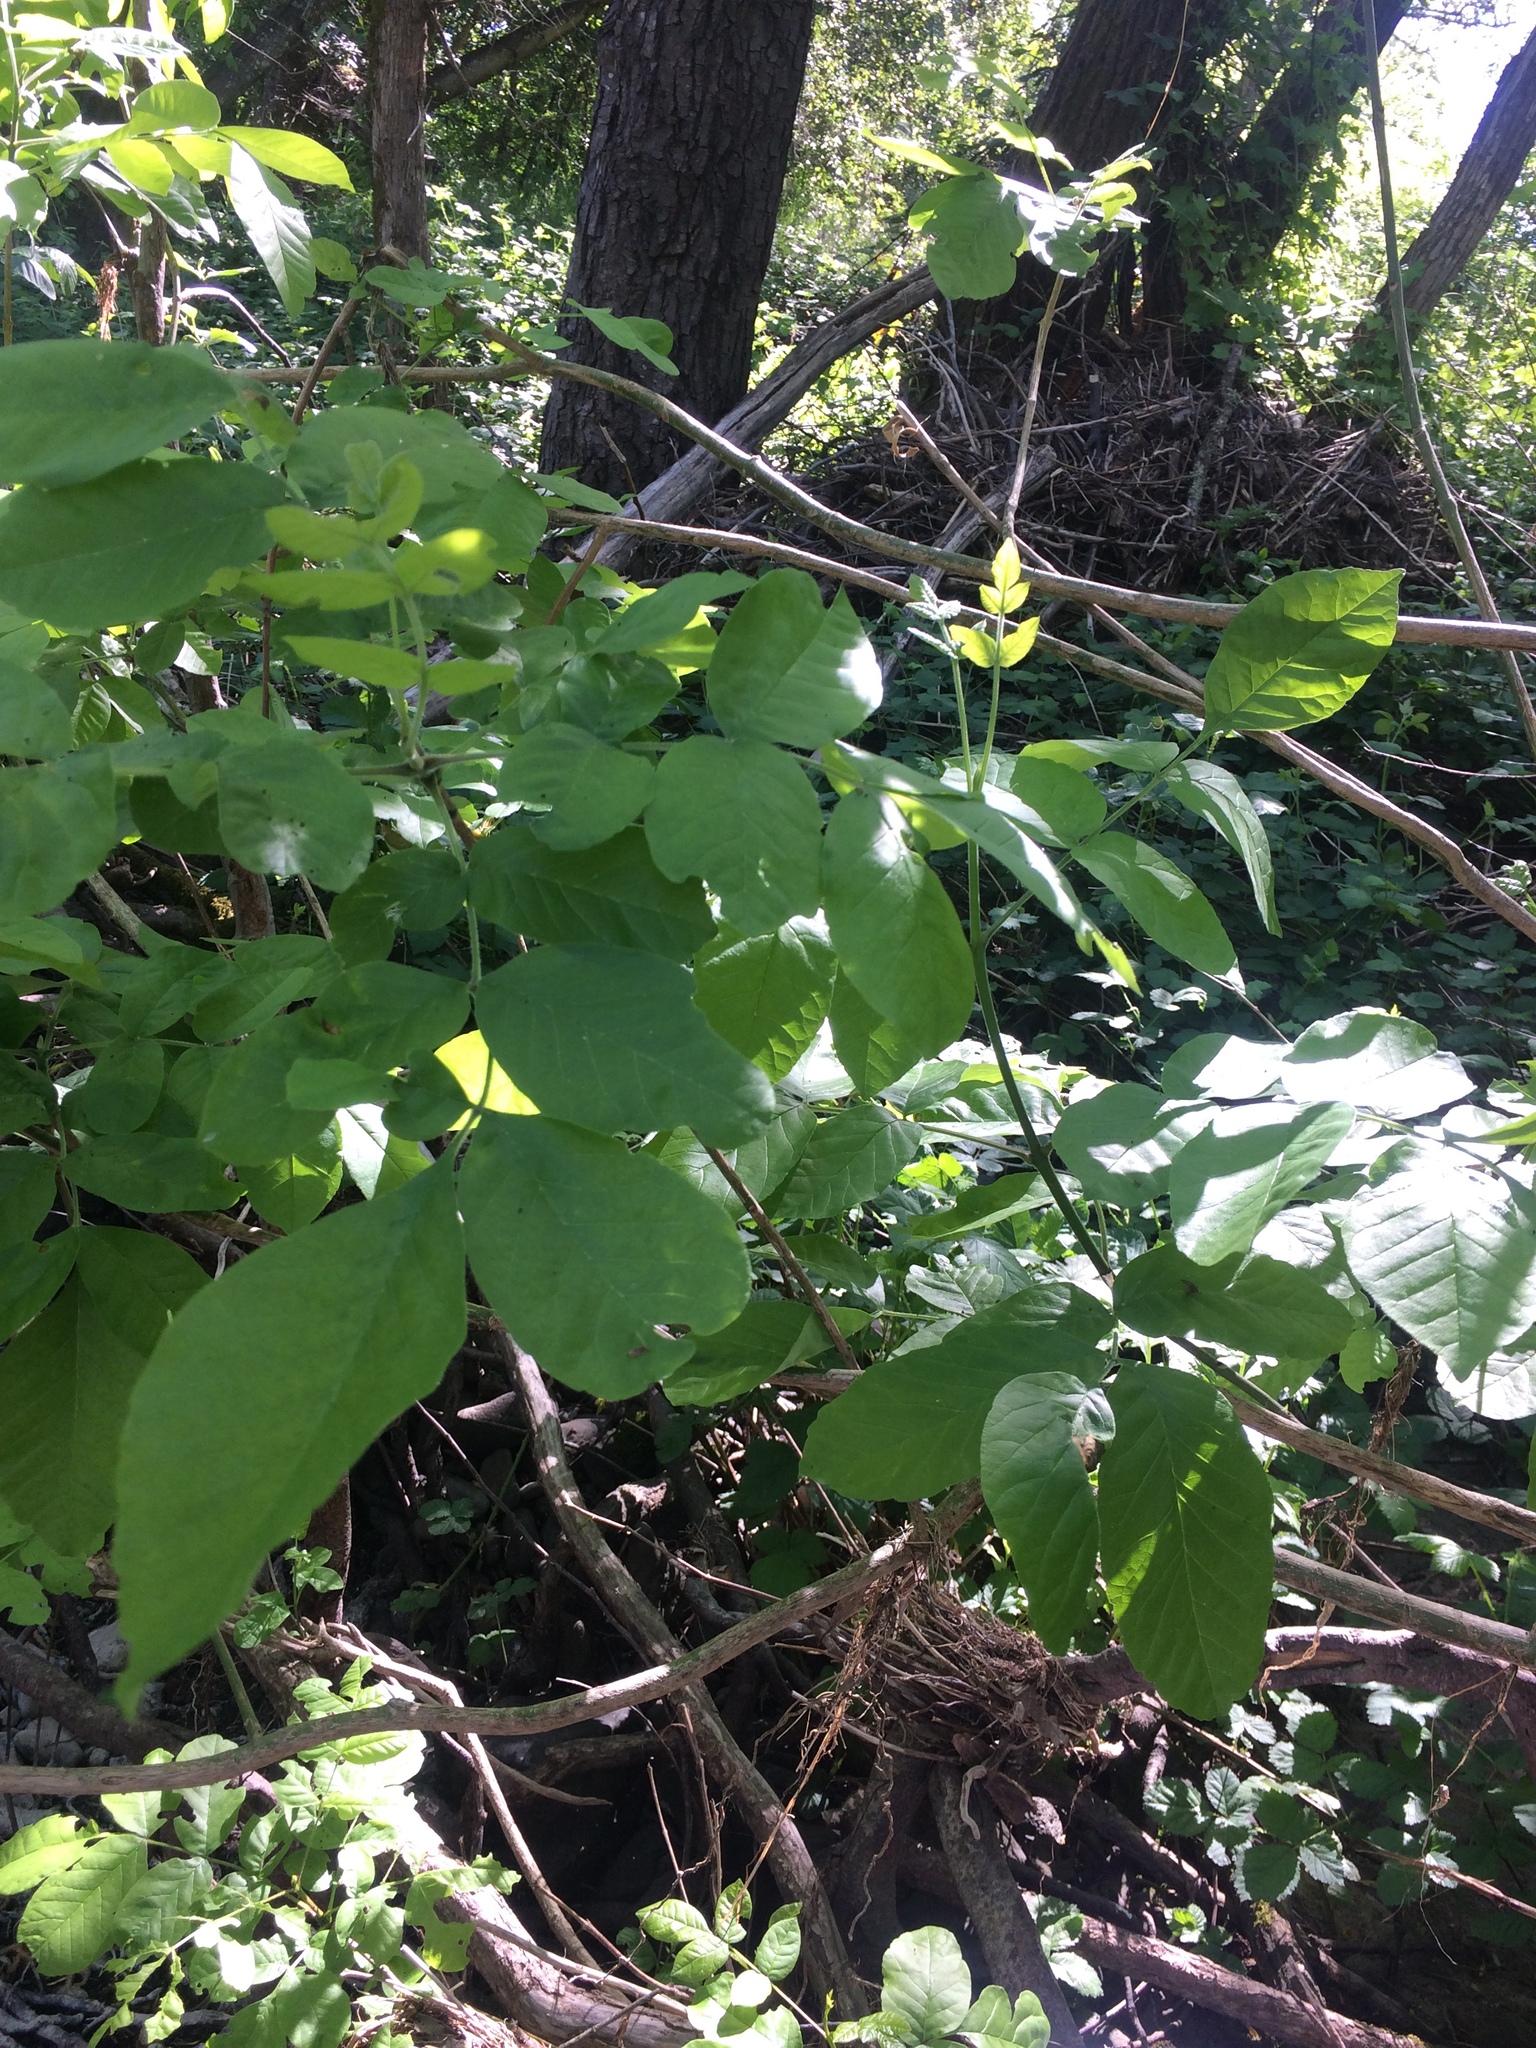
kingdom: Plantae
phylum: Tracheophyta
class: Magnoliopsida
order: Lamiales
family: Oleaceae
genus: Fraxinus
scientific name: Fraxinus latifolia
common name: Oregon ash
